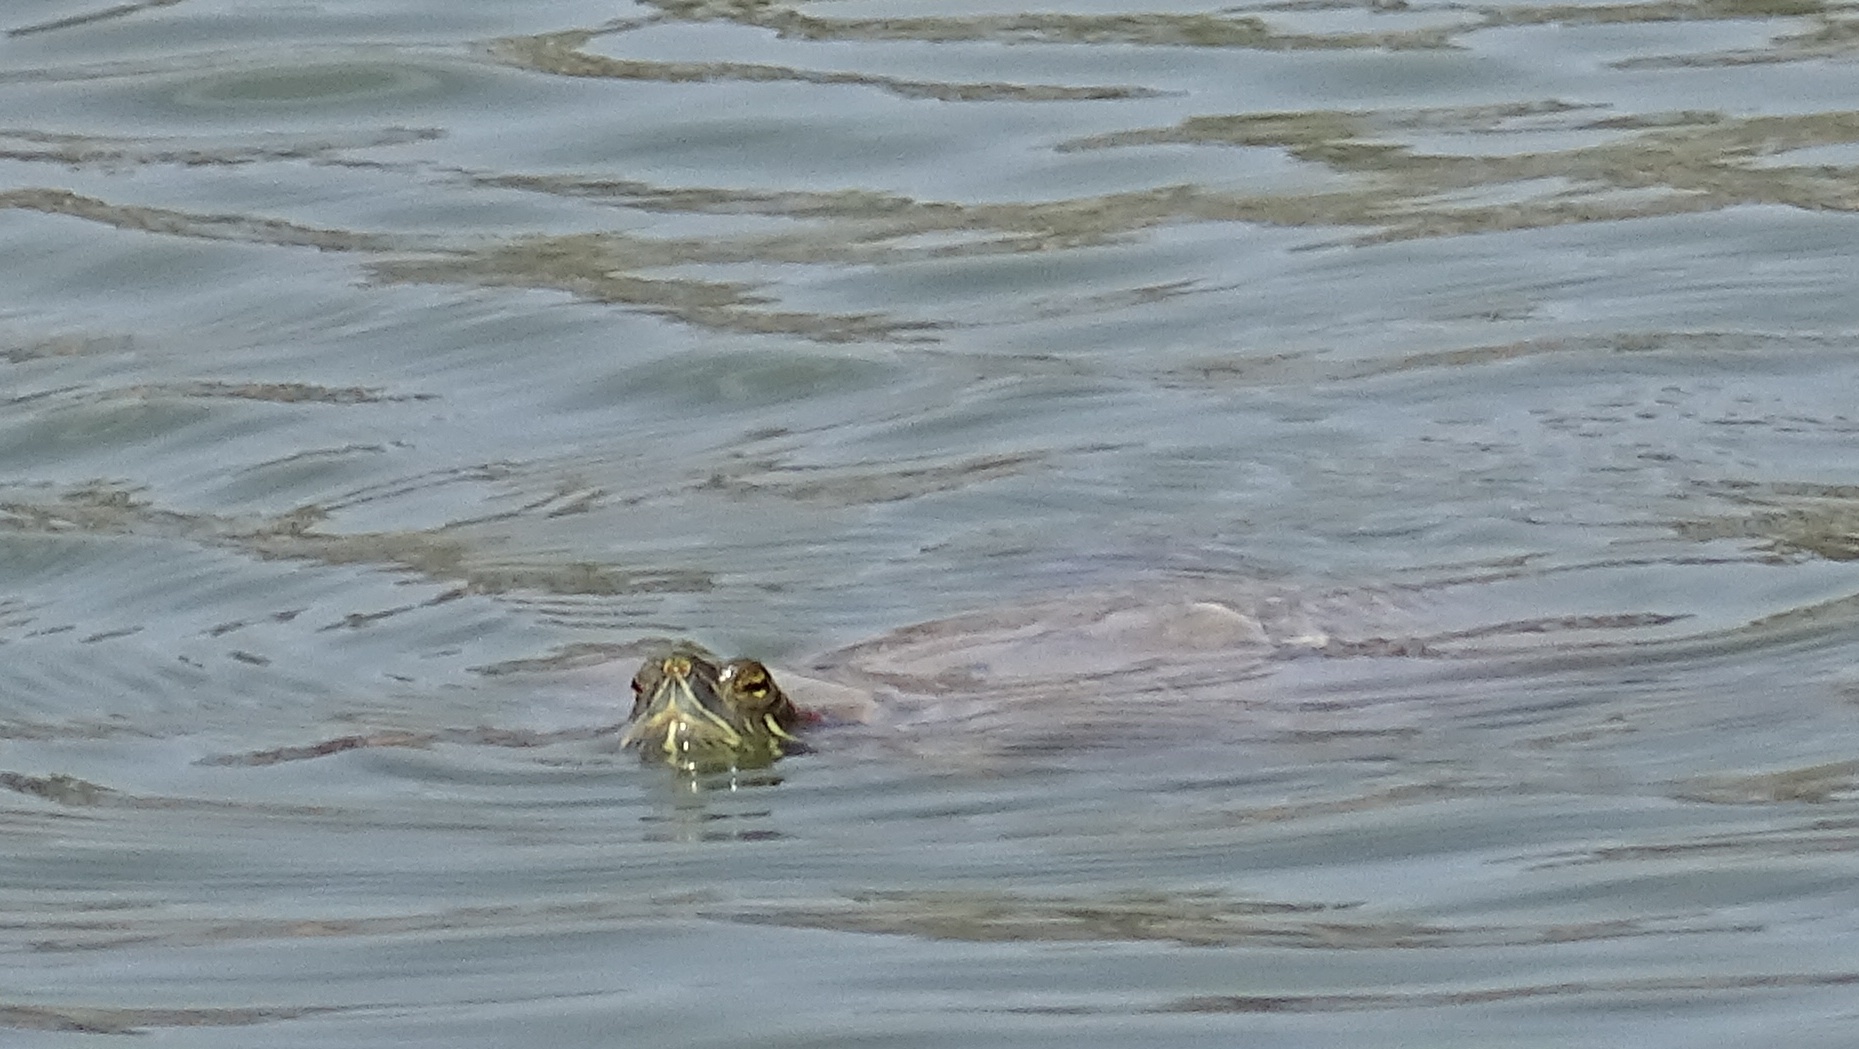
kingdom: Animalia
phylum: Chordata
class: Testudines
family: Emydidae
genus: Trachemys
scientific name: Trachemys scripta
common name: Slider
